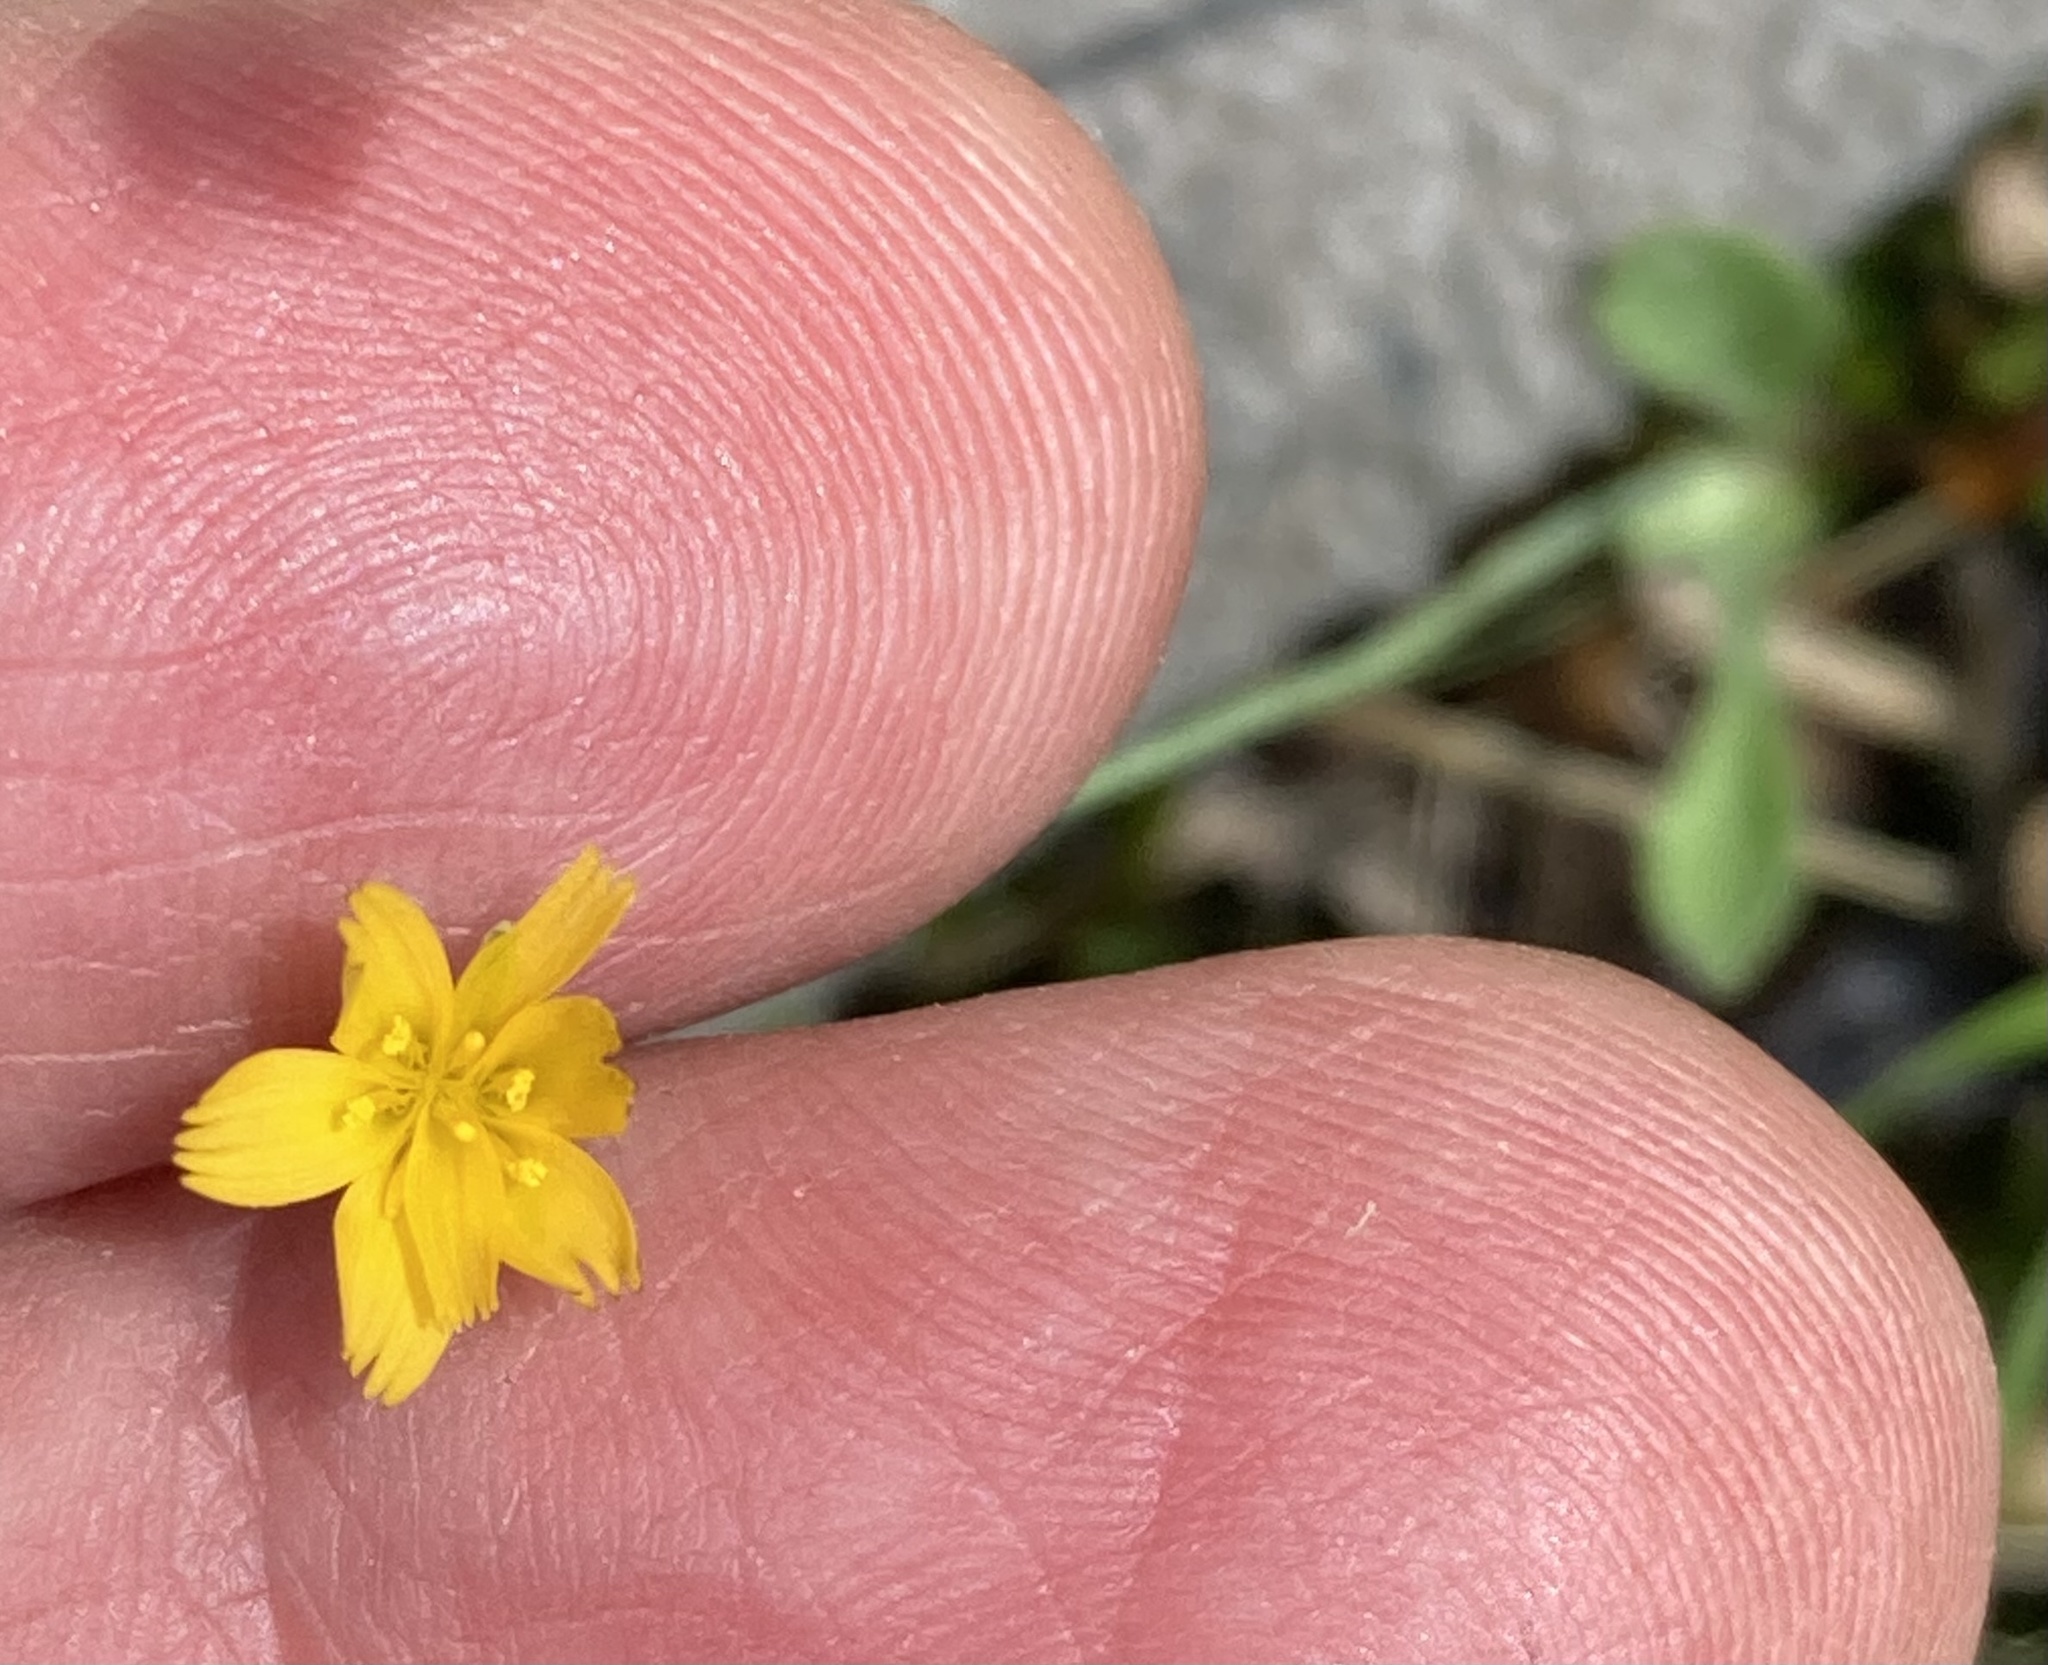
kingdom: Plantae
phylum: Tracheophyta
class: Magnoliopsida
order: Asterales
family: Asteraceae
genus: Krigia
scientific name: Krigia virginica
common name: Virginia dwarf-dandelion
